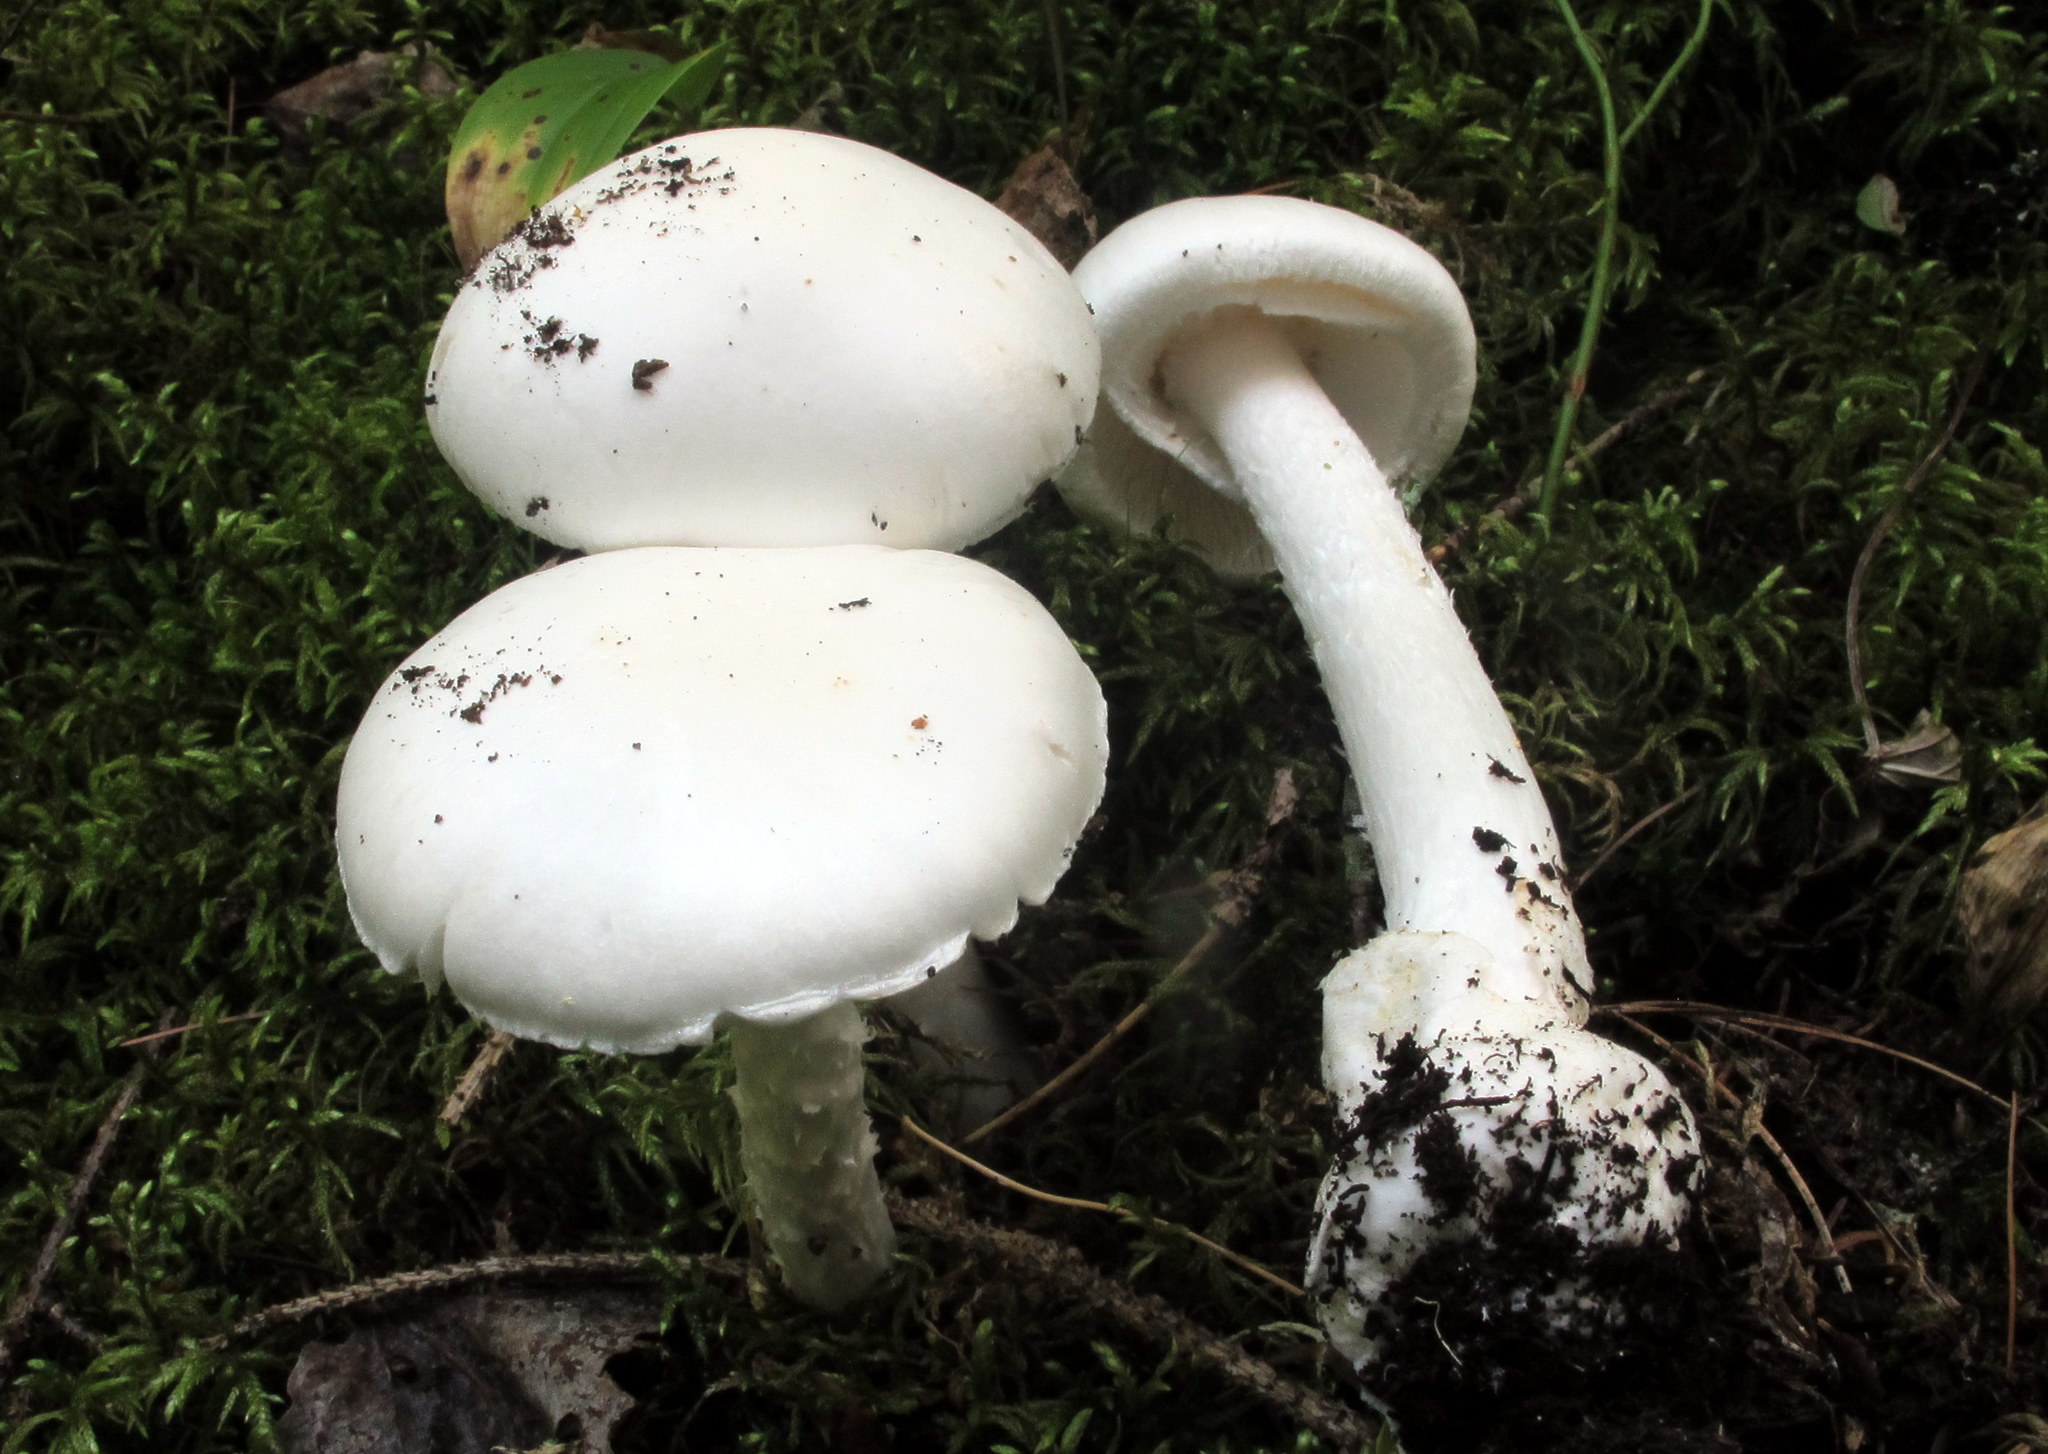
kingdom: Fungi
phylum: Basidiomycota
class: Agaricomycetes
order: Agaricales
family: Amanitaceae
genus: Amanita
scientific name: Amanita bisporigera
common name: Eastern north american destroying angel
